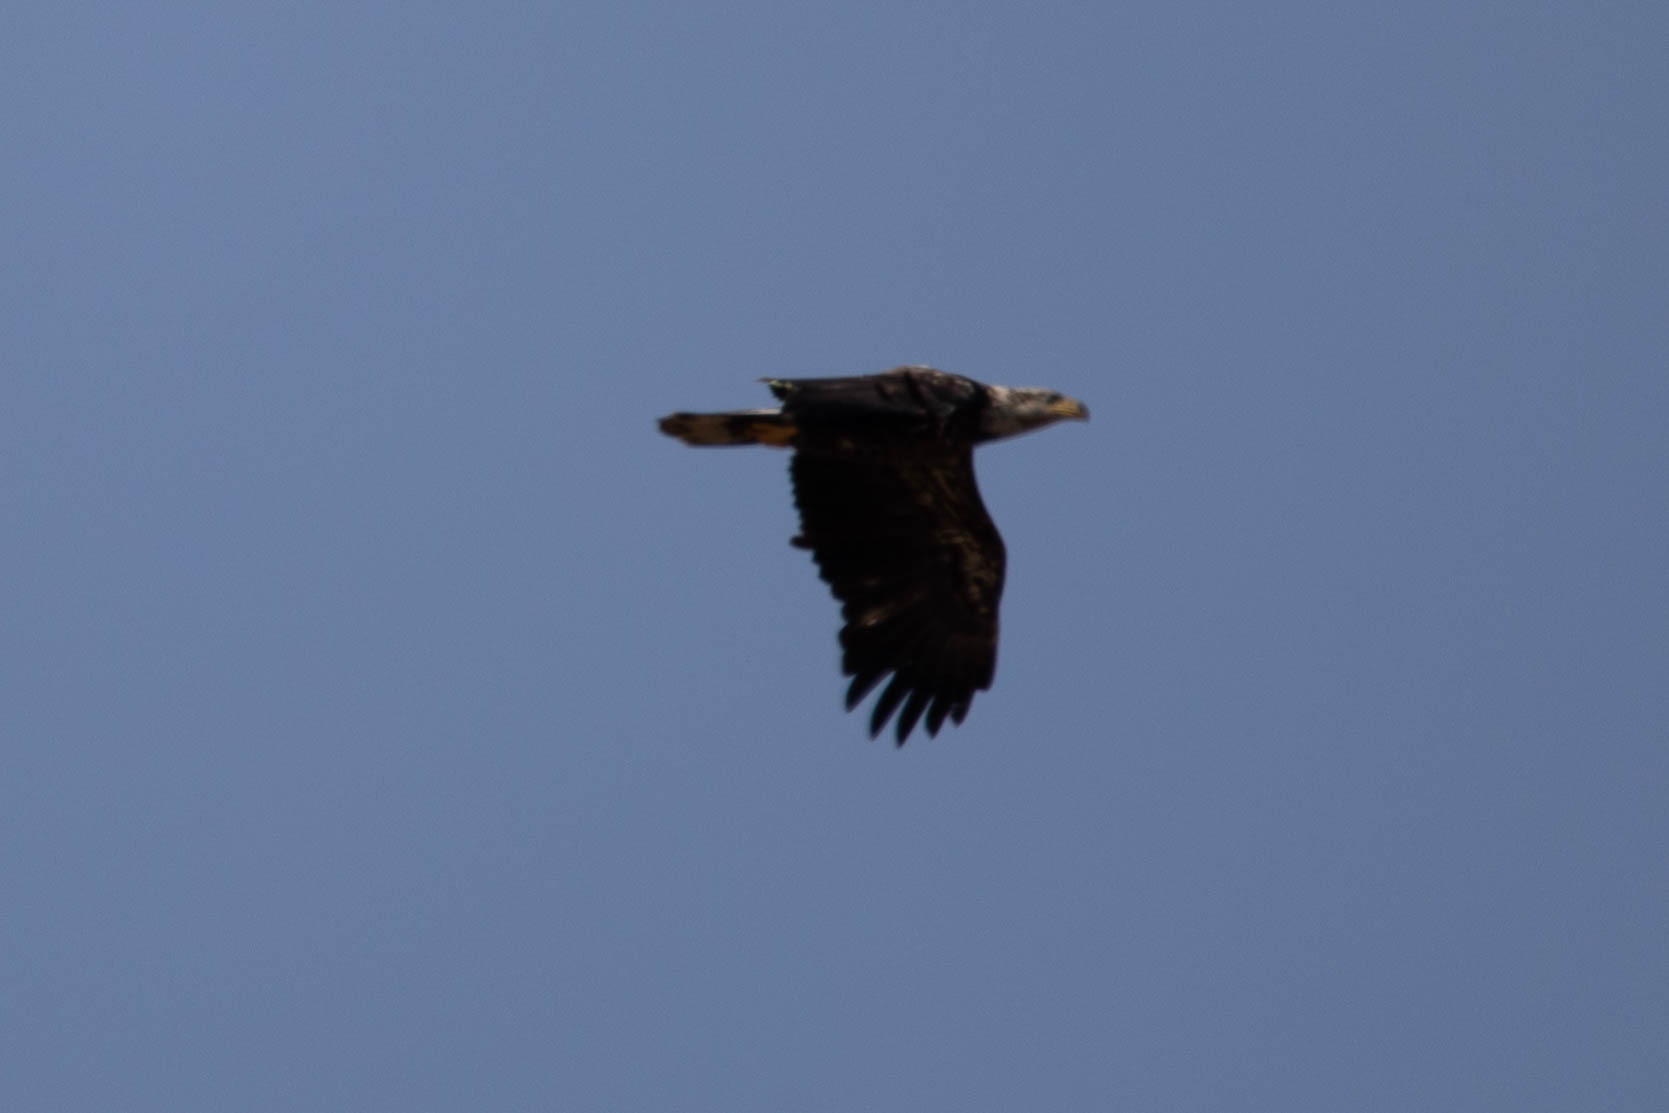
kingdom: Animalia
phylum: Chordata
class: Aves
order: Accipitriformes
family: Accipitridae
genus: Haliaeetus
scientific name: Haliaeetus leucocephalus
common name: Bald eagle
